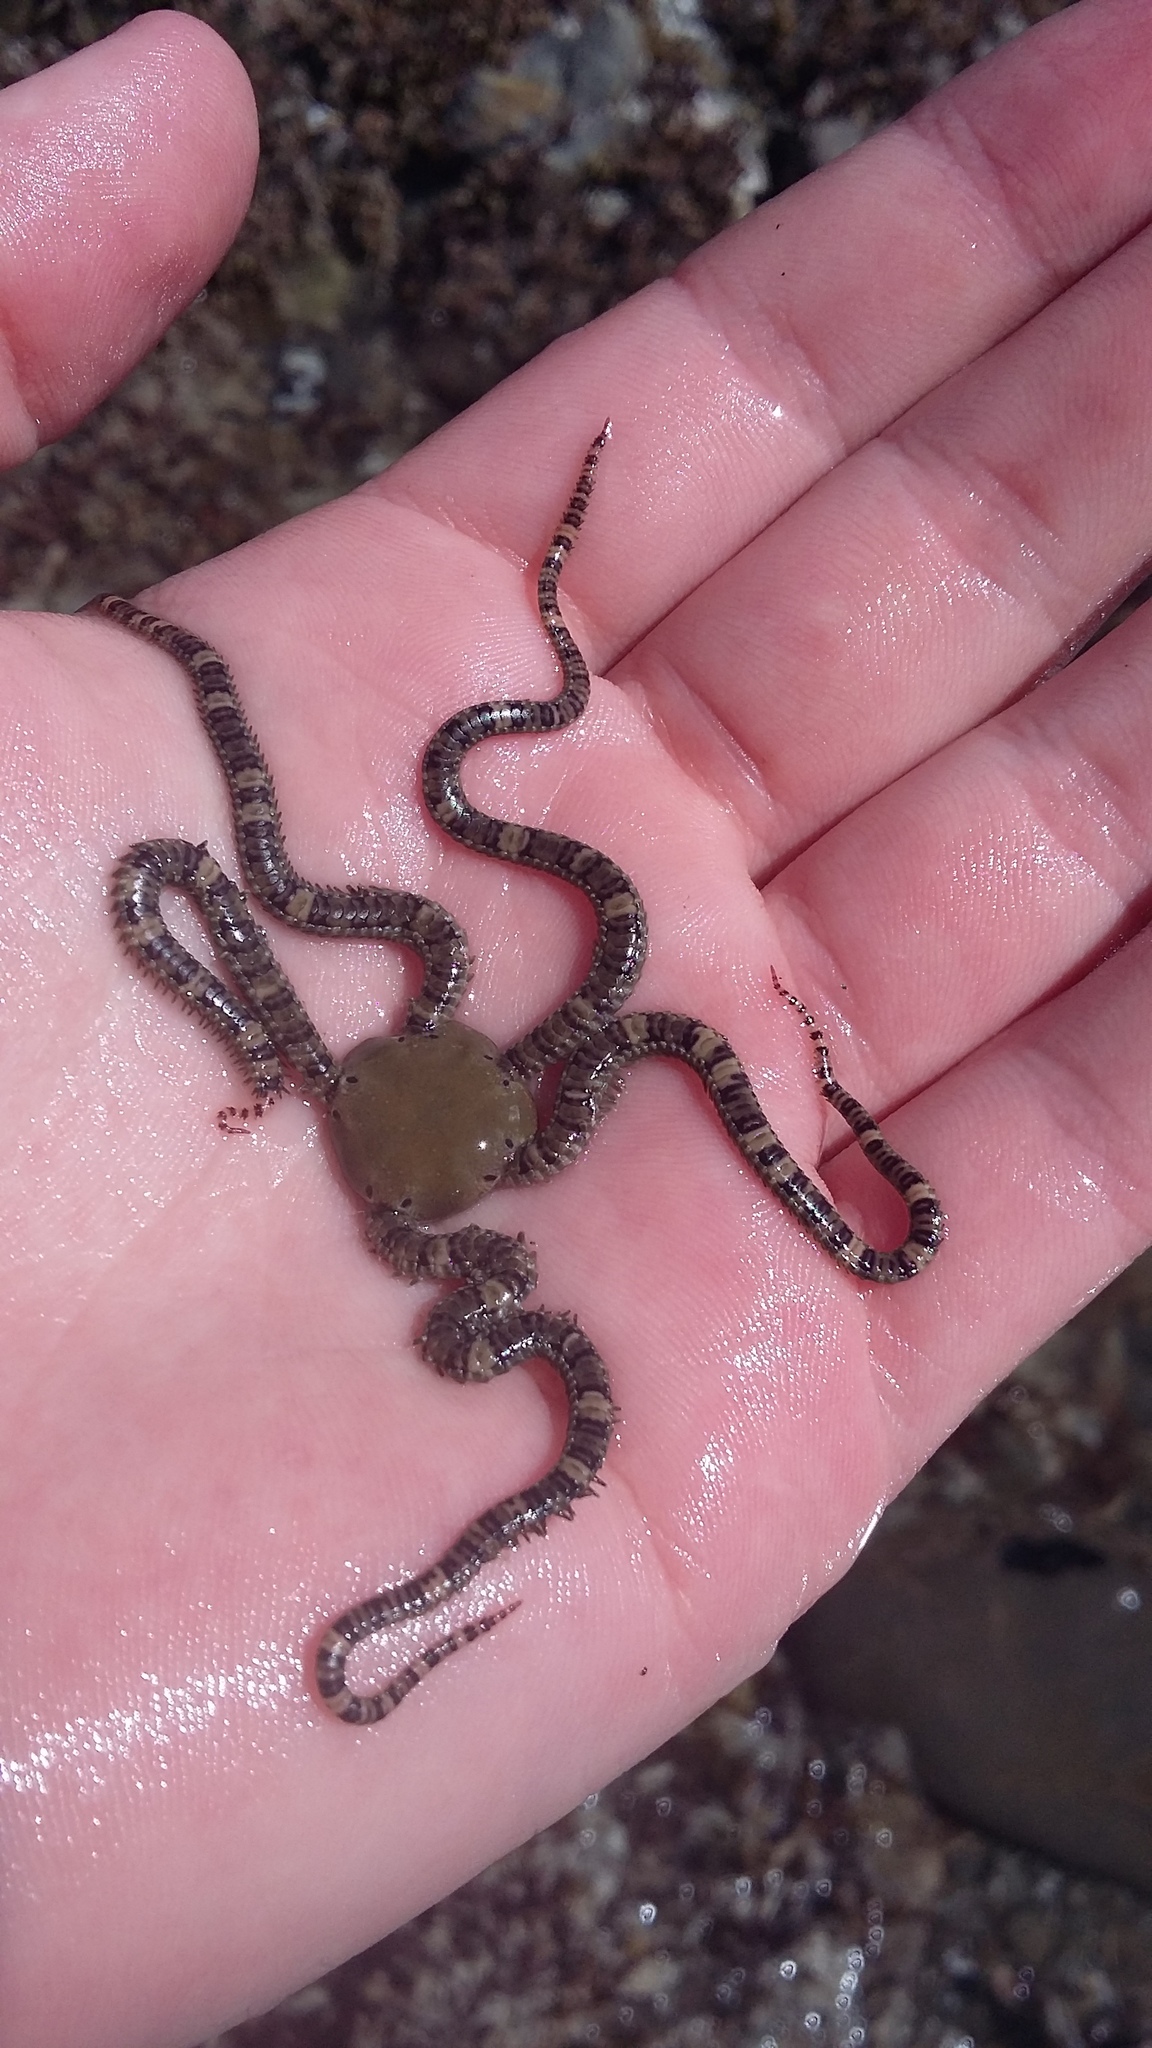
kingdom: Animalia
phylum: Echinodermata
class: Ophiuroidea
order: Amphilepidida
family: Ophionereididae
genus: Ophionereis
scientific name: Ophionereis fasciata
